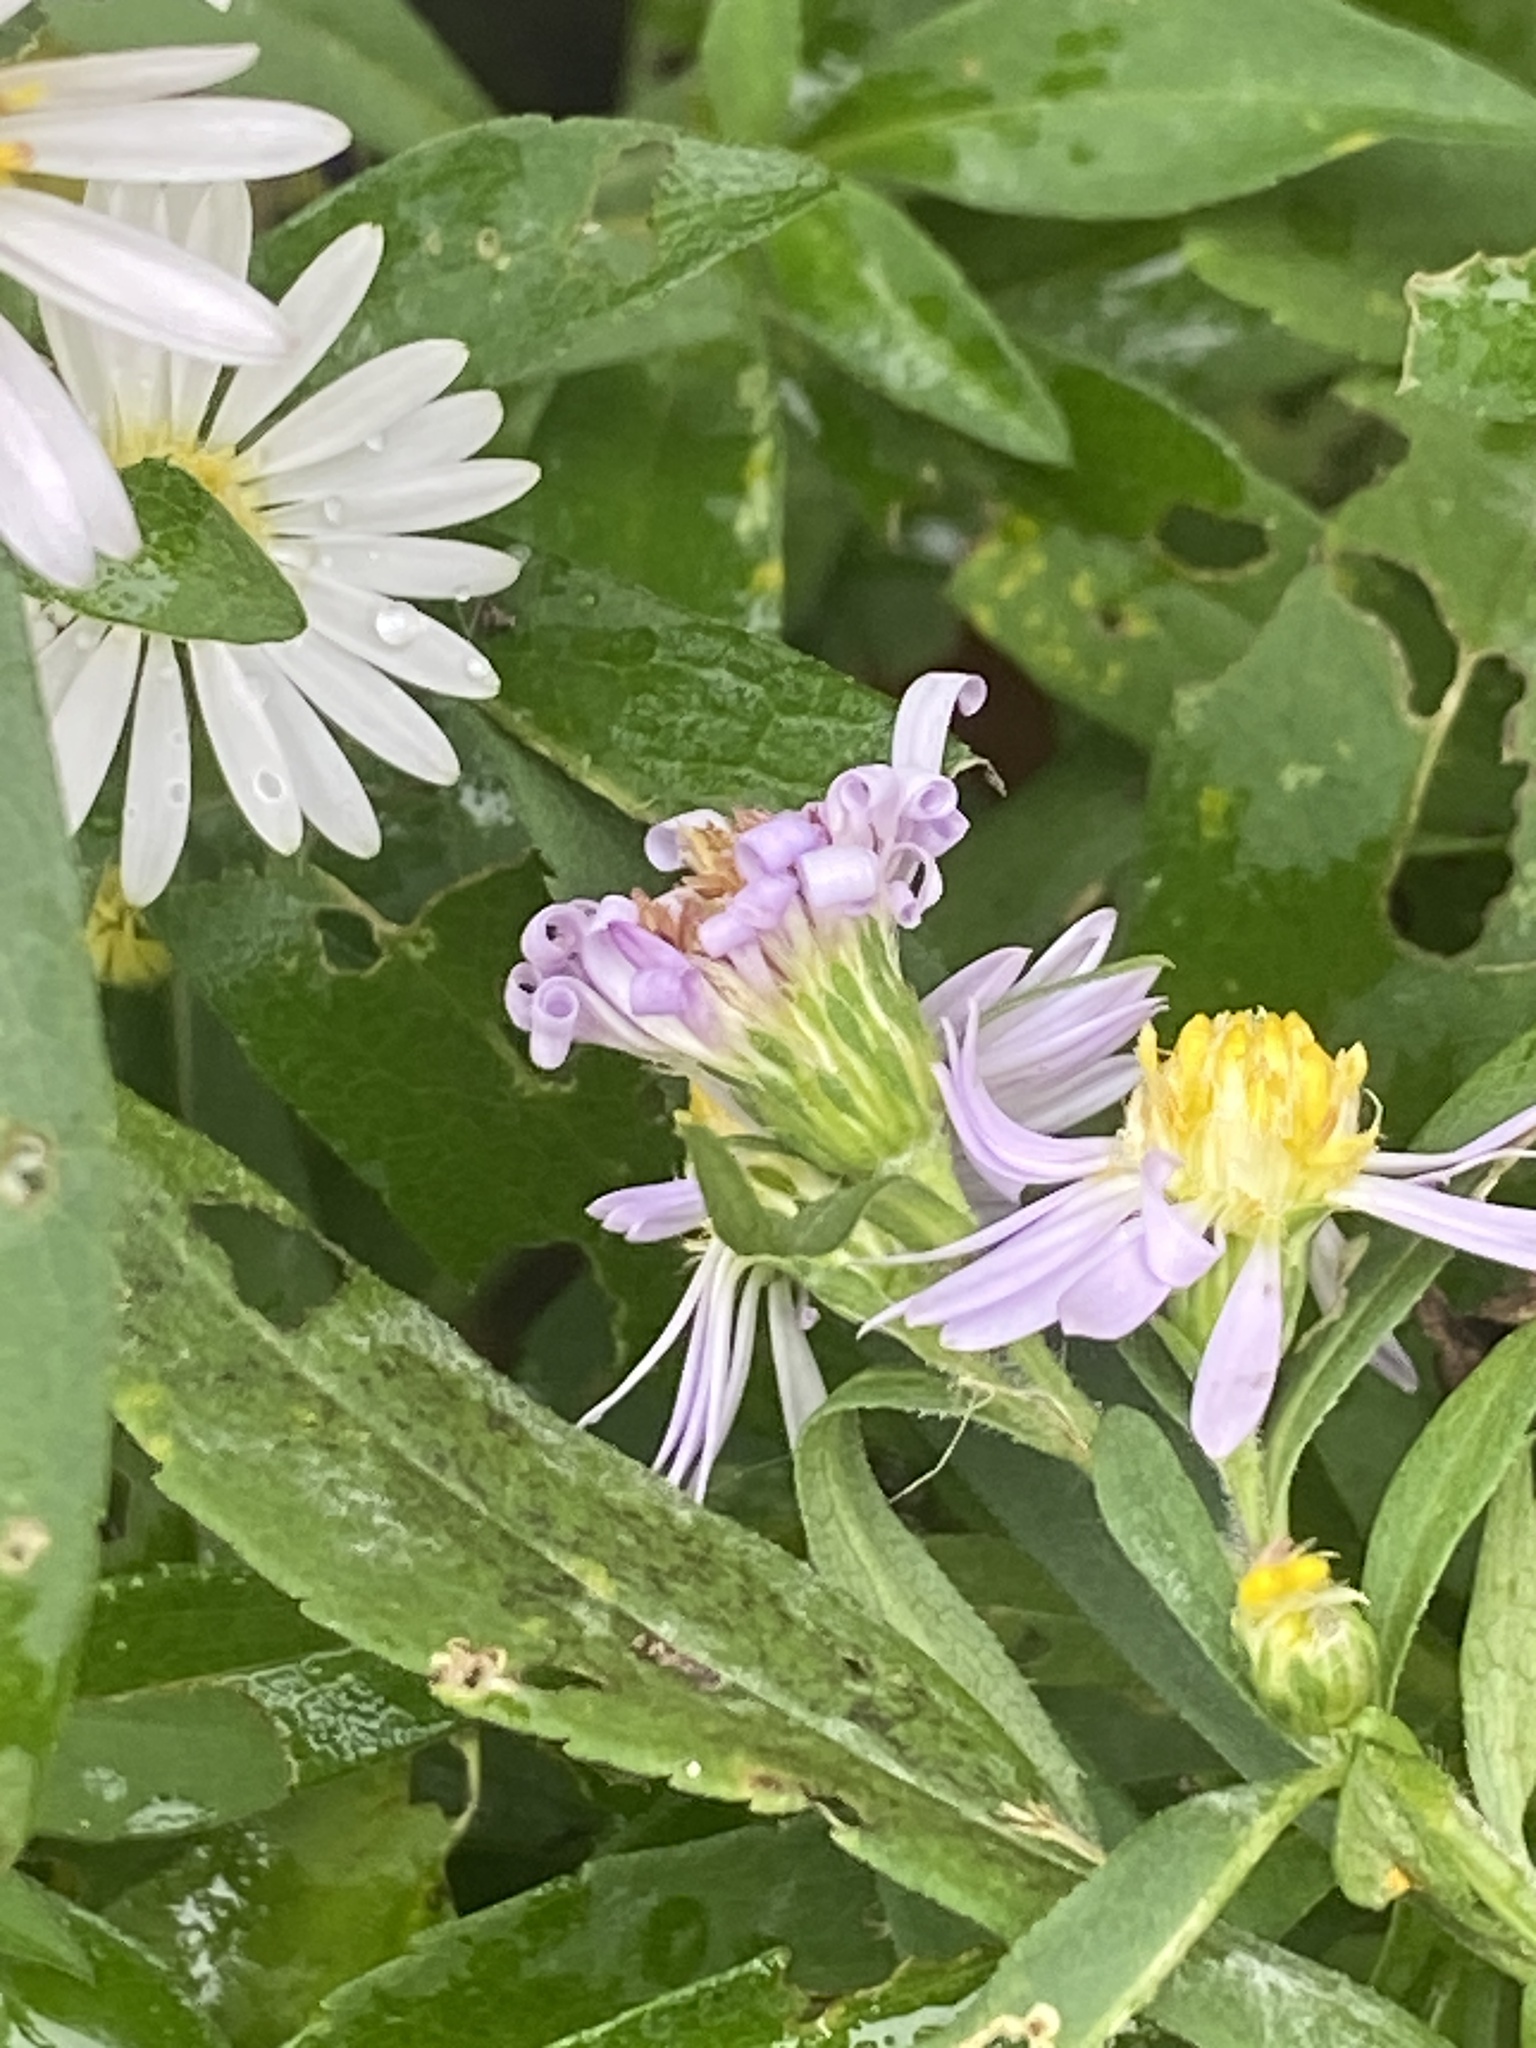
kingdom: Plantae
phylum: Tracheophyta
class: Magnoliopsida
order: Asterales
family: Asteraceae
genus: Symphyotrichum
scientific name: Symphyotrichum lanceolatum
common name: Panicled aster
